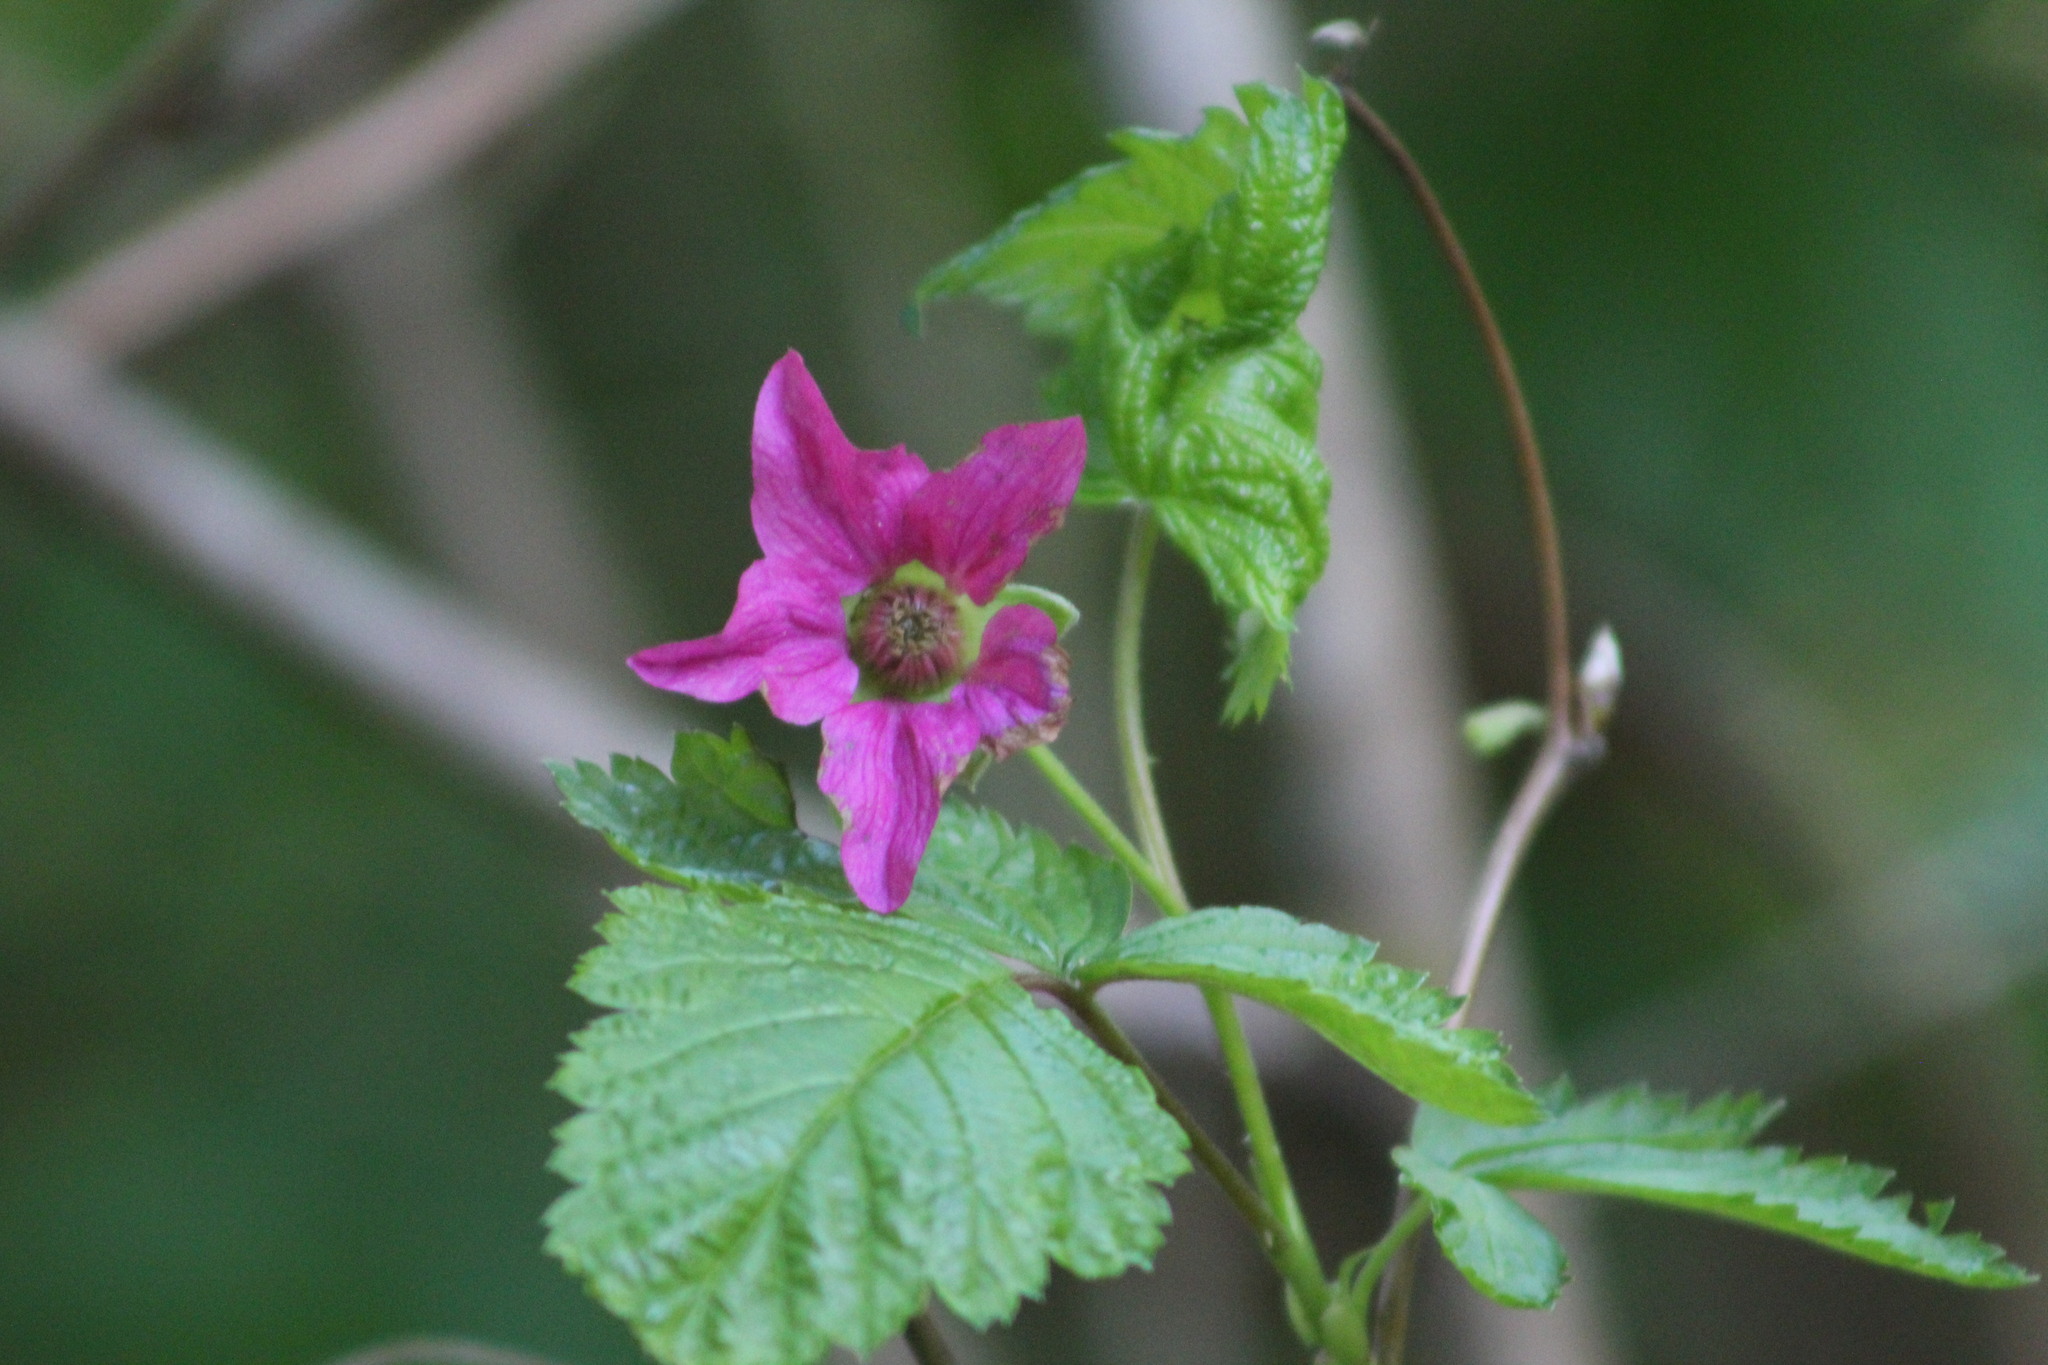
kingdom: Plantae
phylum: Tracheophyta
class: Magnoliopsida
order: Rosales
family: Rosaceae
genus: Rubus
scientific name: Rubus spectabilis
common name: Salmonberry
